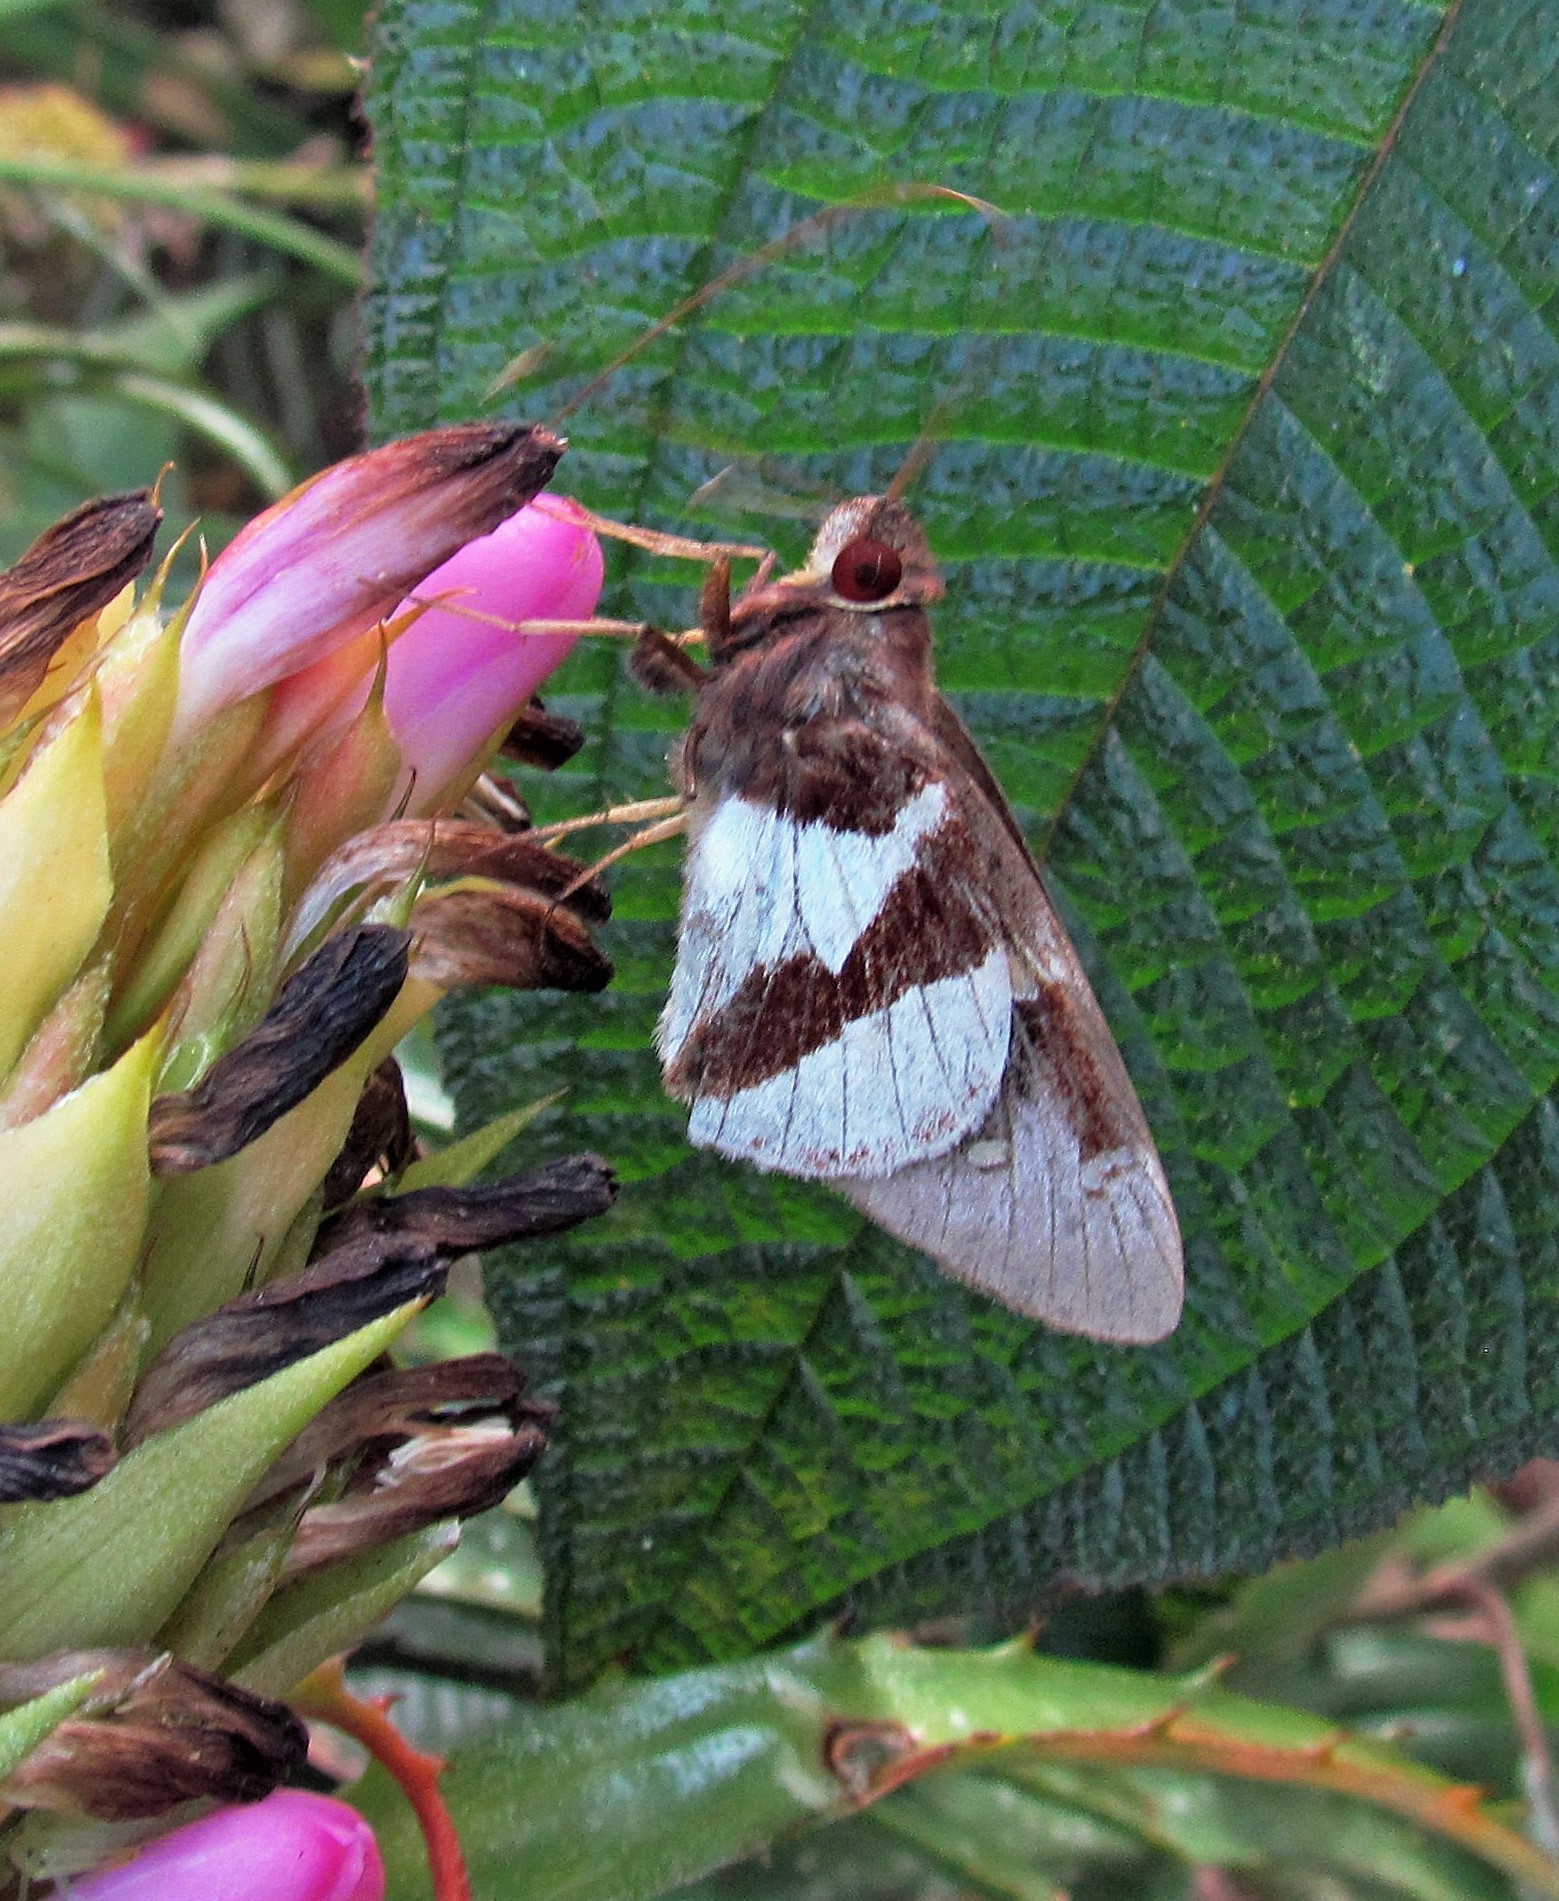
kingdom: Animalia
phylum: Arthropoda
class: Insecta
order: Lepidoptera
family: Hesperiidae
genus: Lycas
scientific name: Lycas argentea
